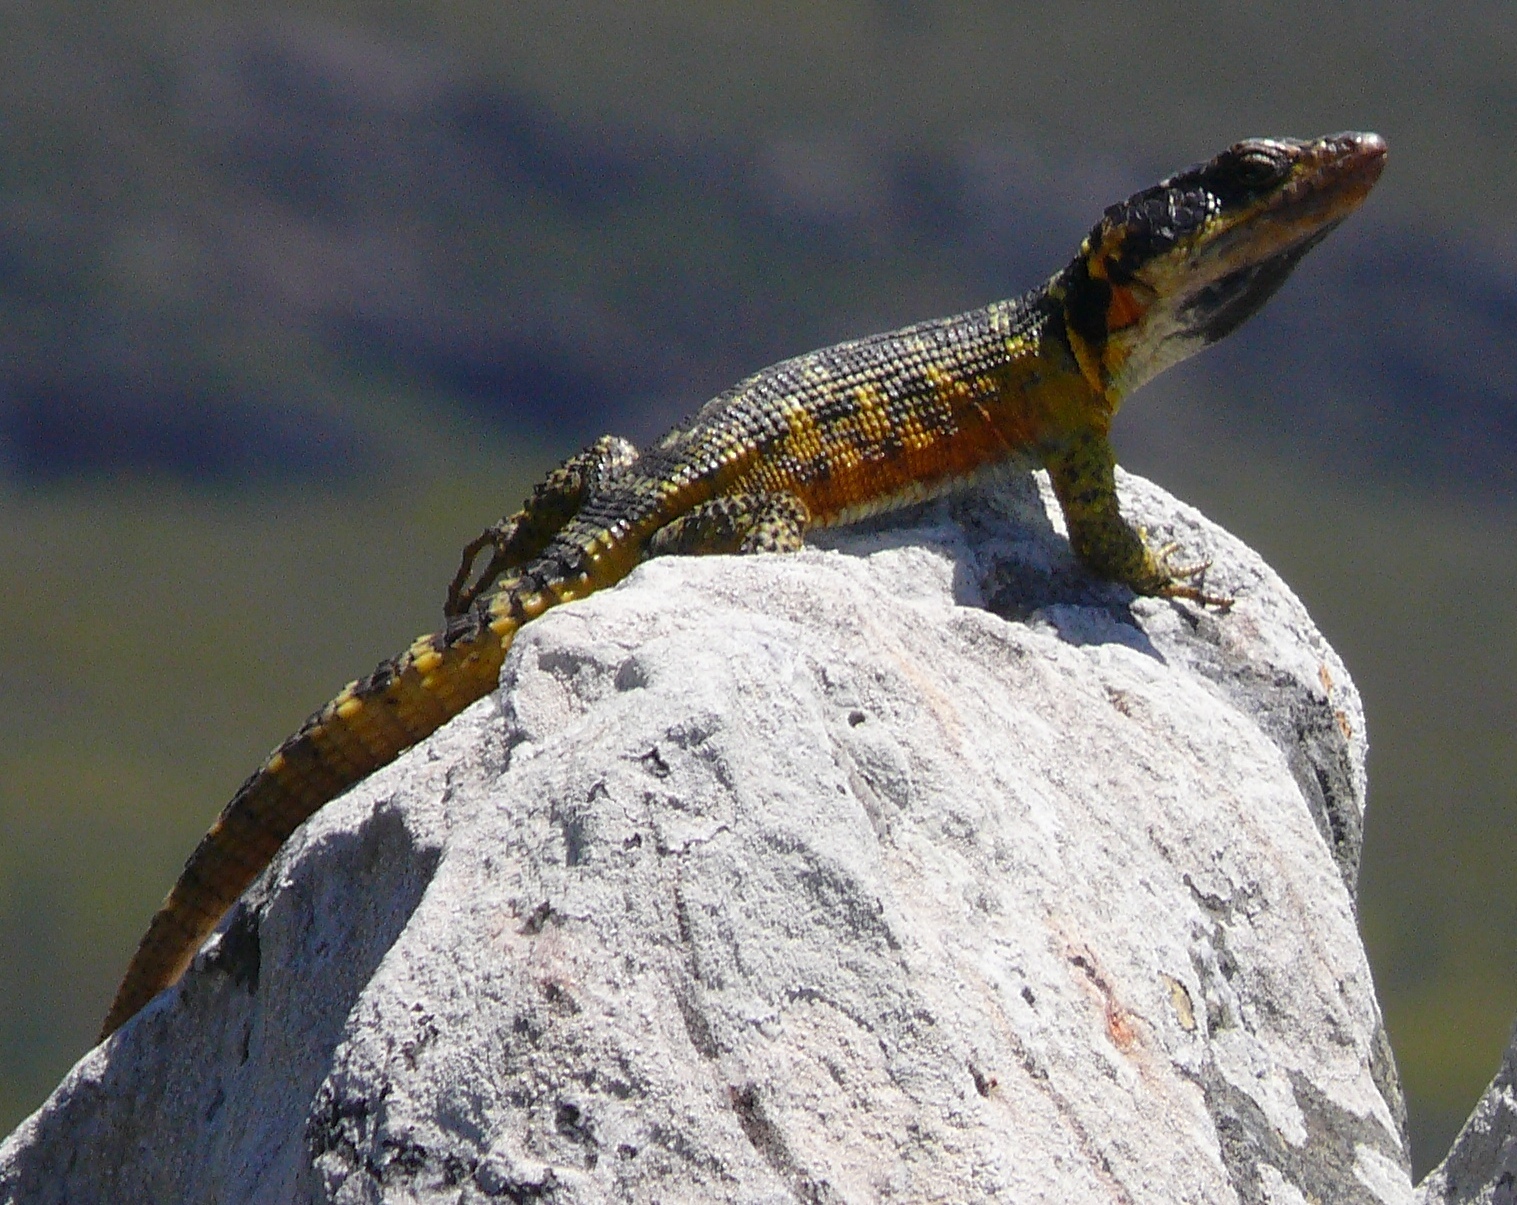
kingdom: Animalia
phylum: Chordata
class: Squamata
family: Cordylidae
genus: Pseudocordylus
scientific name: Pseudocordylus microlepidotus
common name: Cape crag lizard
